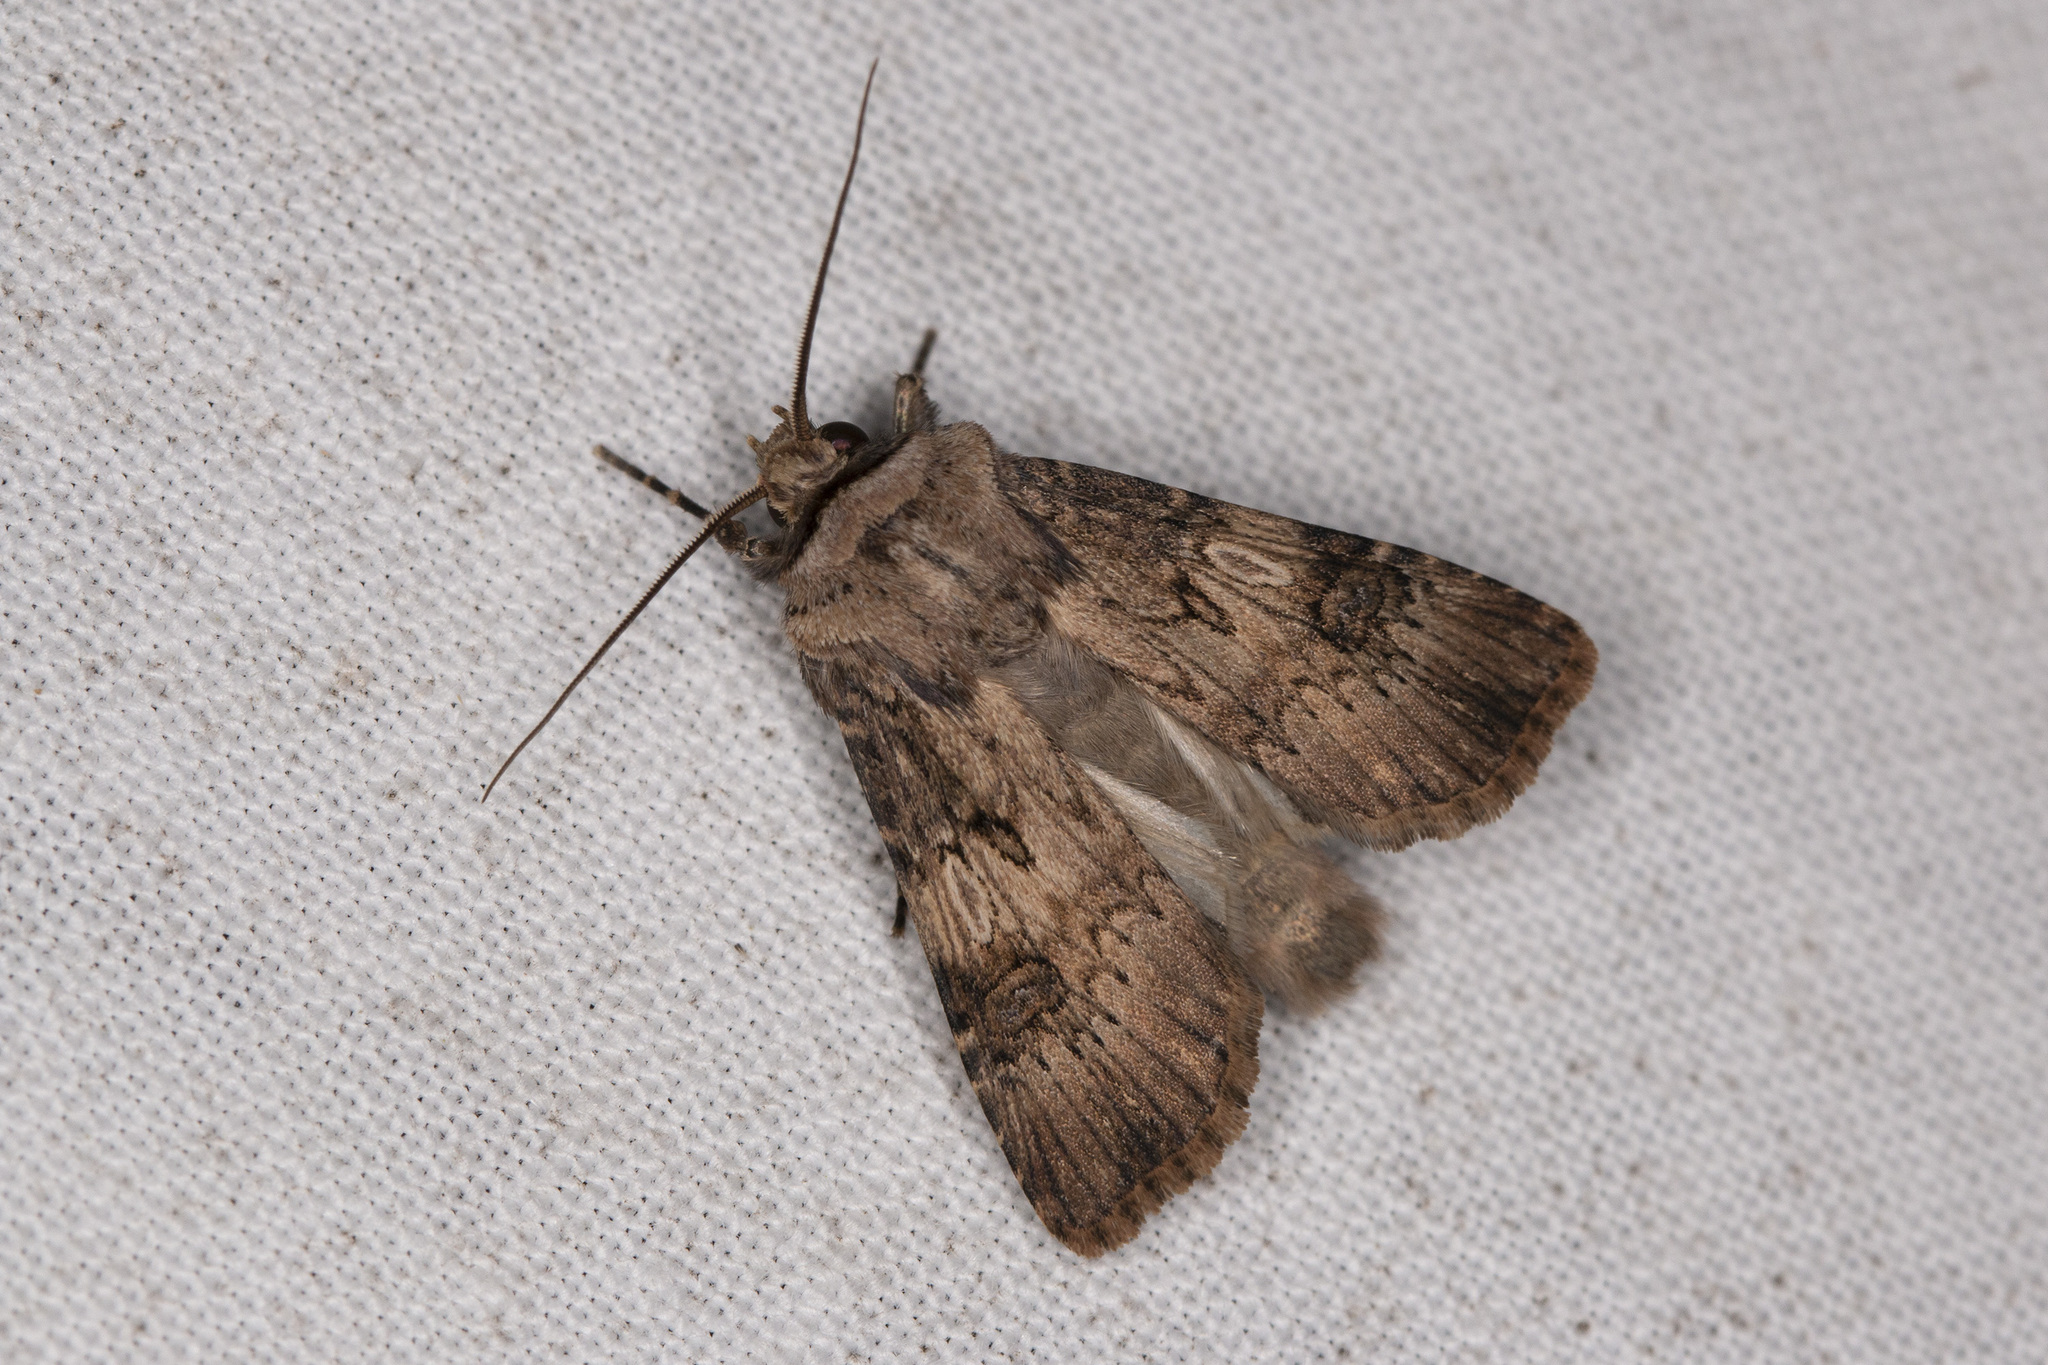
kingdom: Animalia
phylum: Arthropoda
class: Insecta
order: Lepidoptera
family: Noctuidae
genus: Agrotis
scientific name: Agrotis puta
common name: Shuttle-shaped dart
